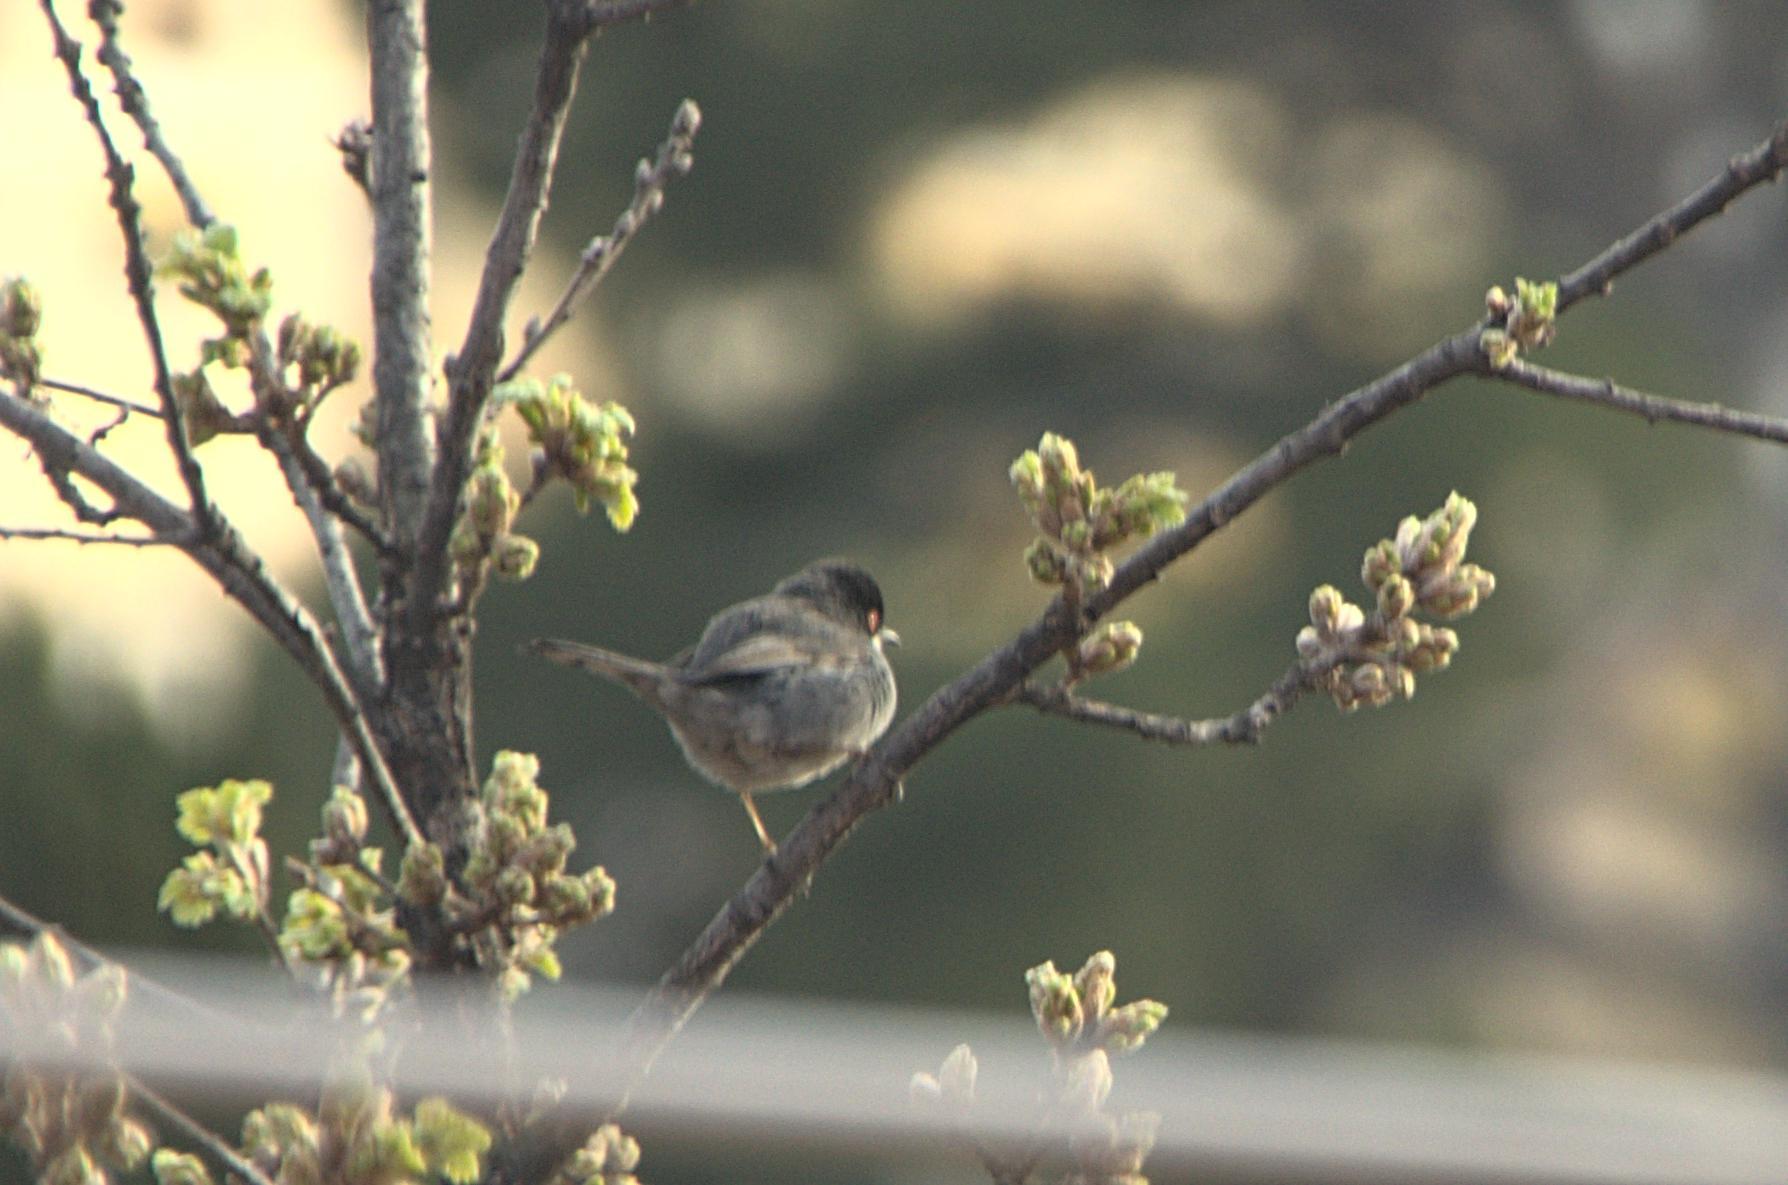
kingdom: Animalia
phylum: Chordata
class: Aves
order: Passeriformes
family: Sylviidae
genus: Curruca
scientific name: Curruca melanocephala
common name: Sardinian warbler
